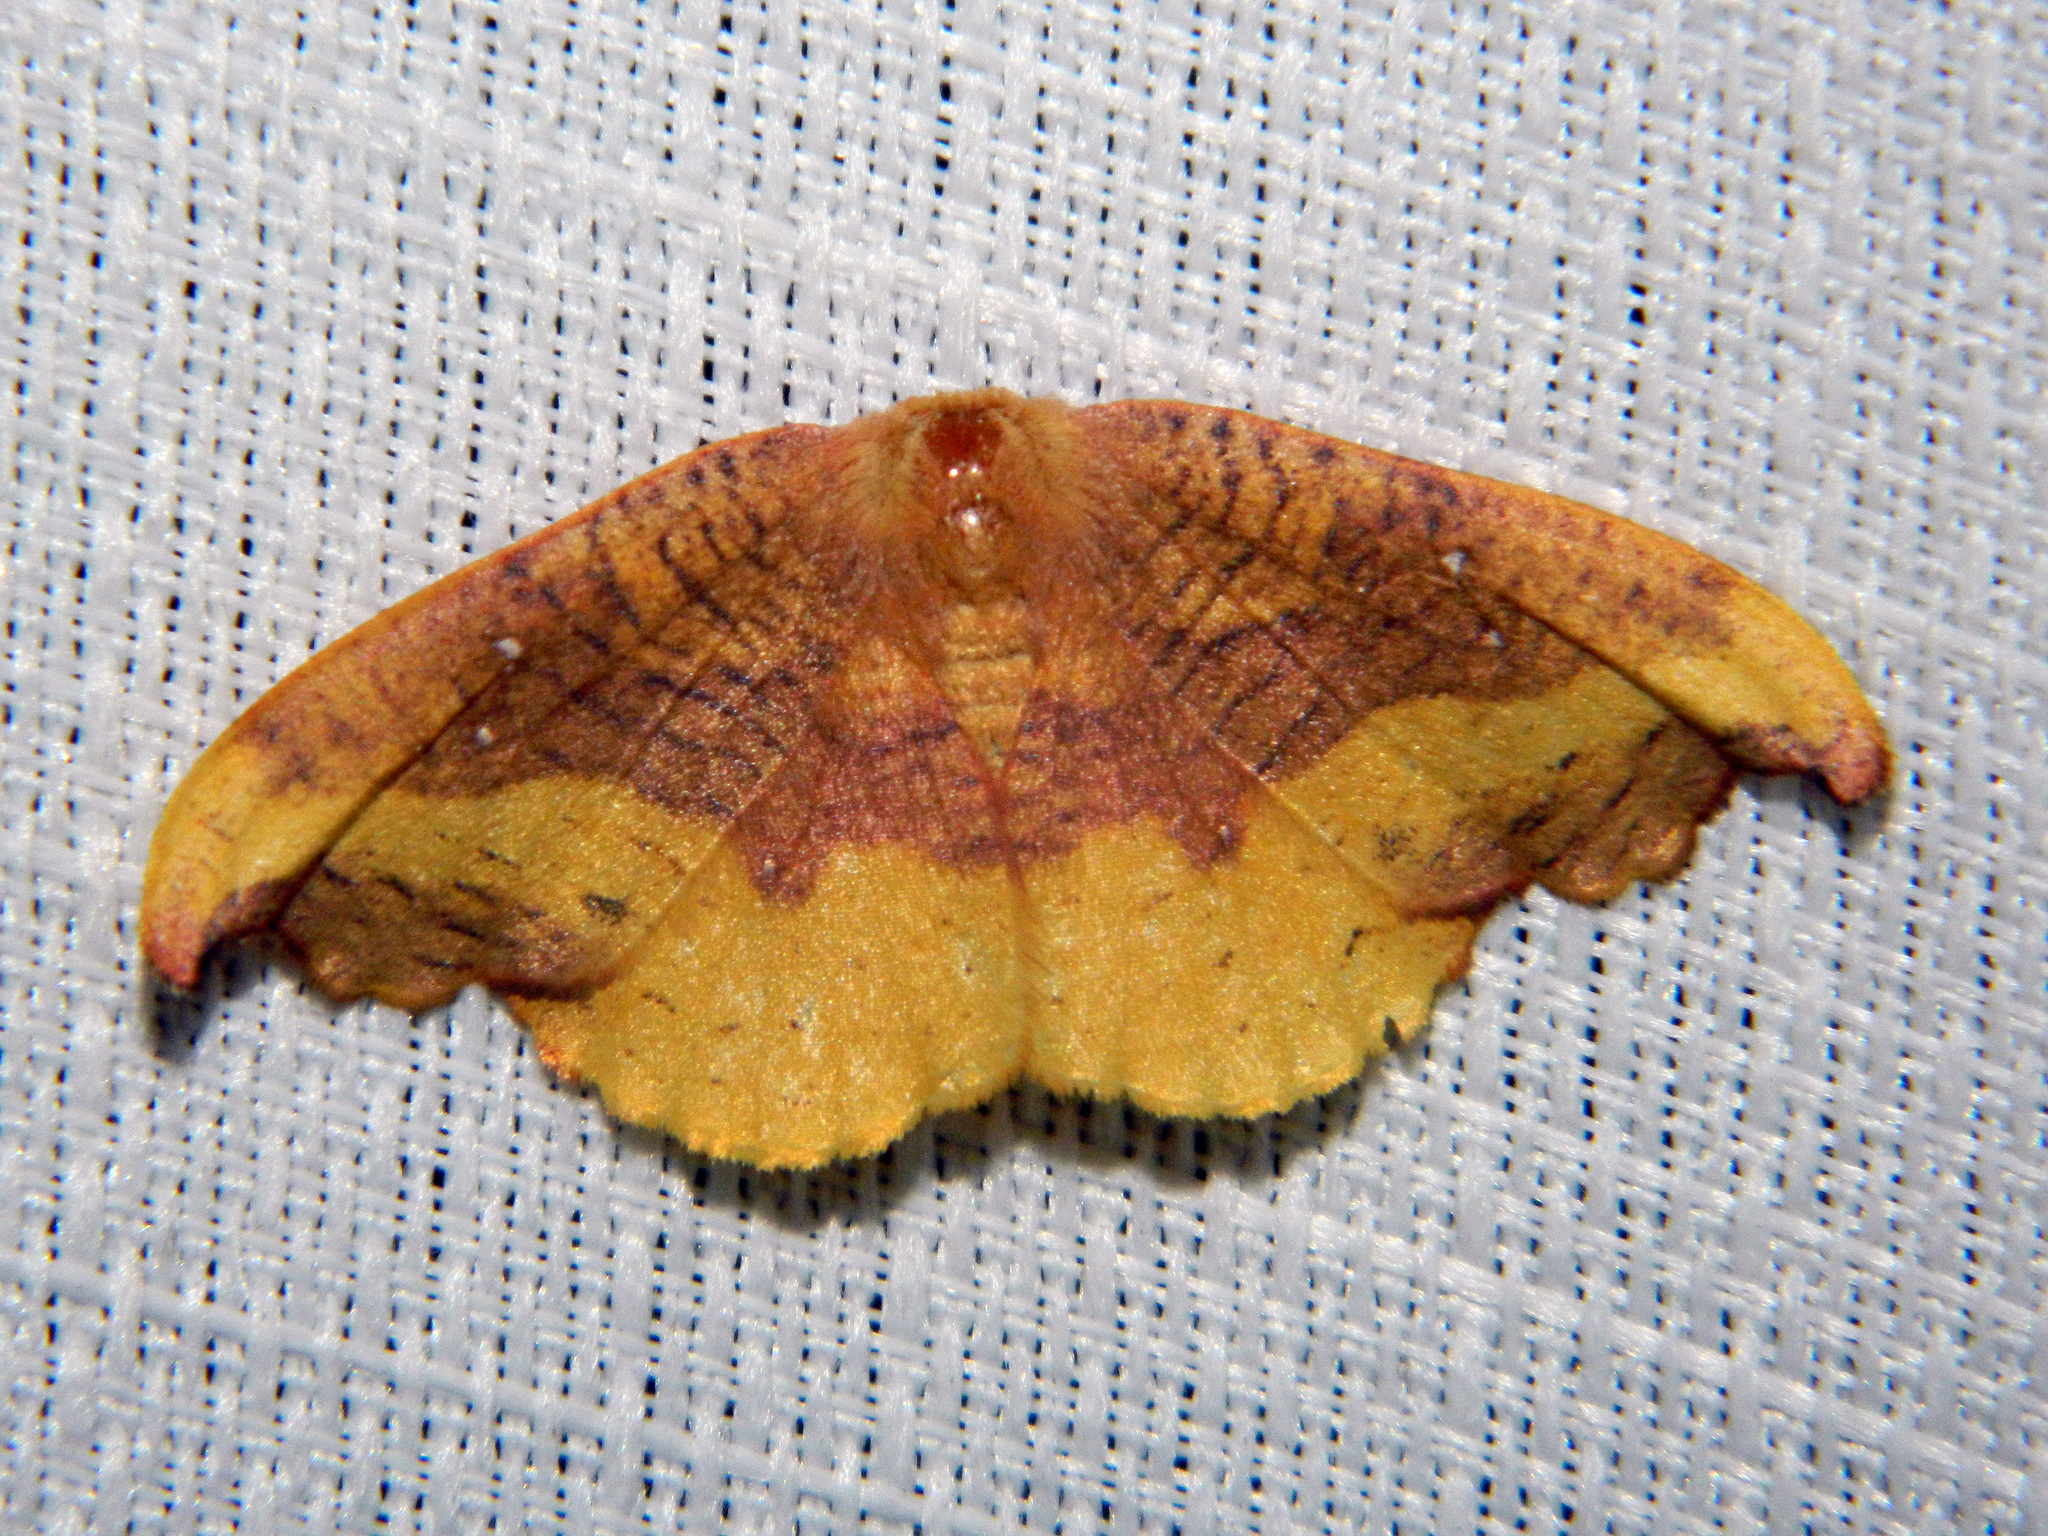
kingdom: Animalia
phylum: Arthropoda
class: Insecta
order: Lepidoptera
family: Drepanidae
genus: Oreta
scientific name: Oreta rosea
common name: Rose hooktip
